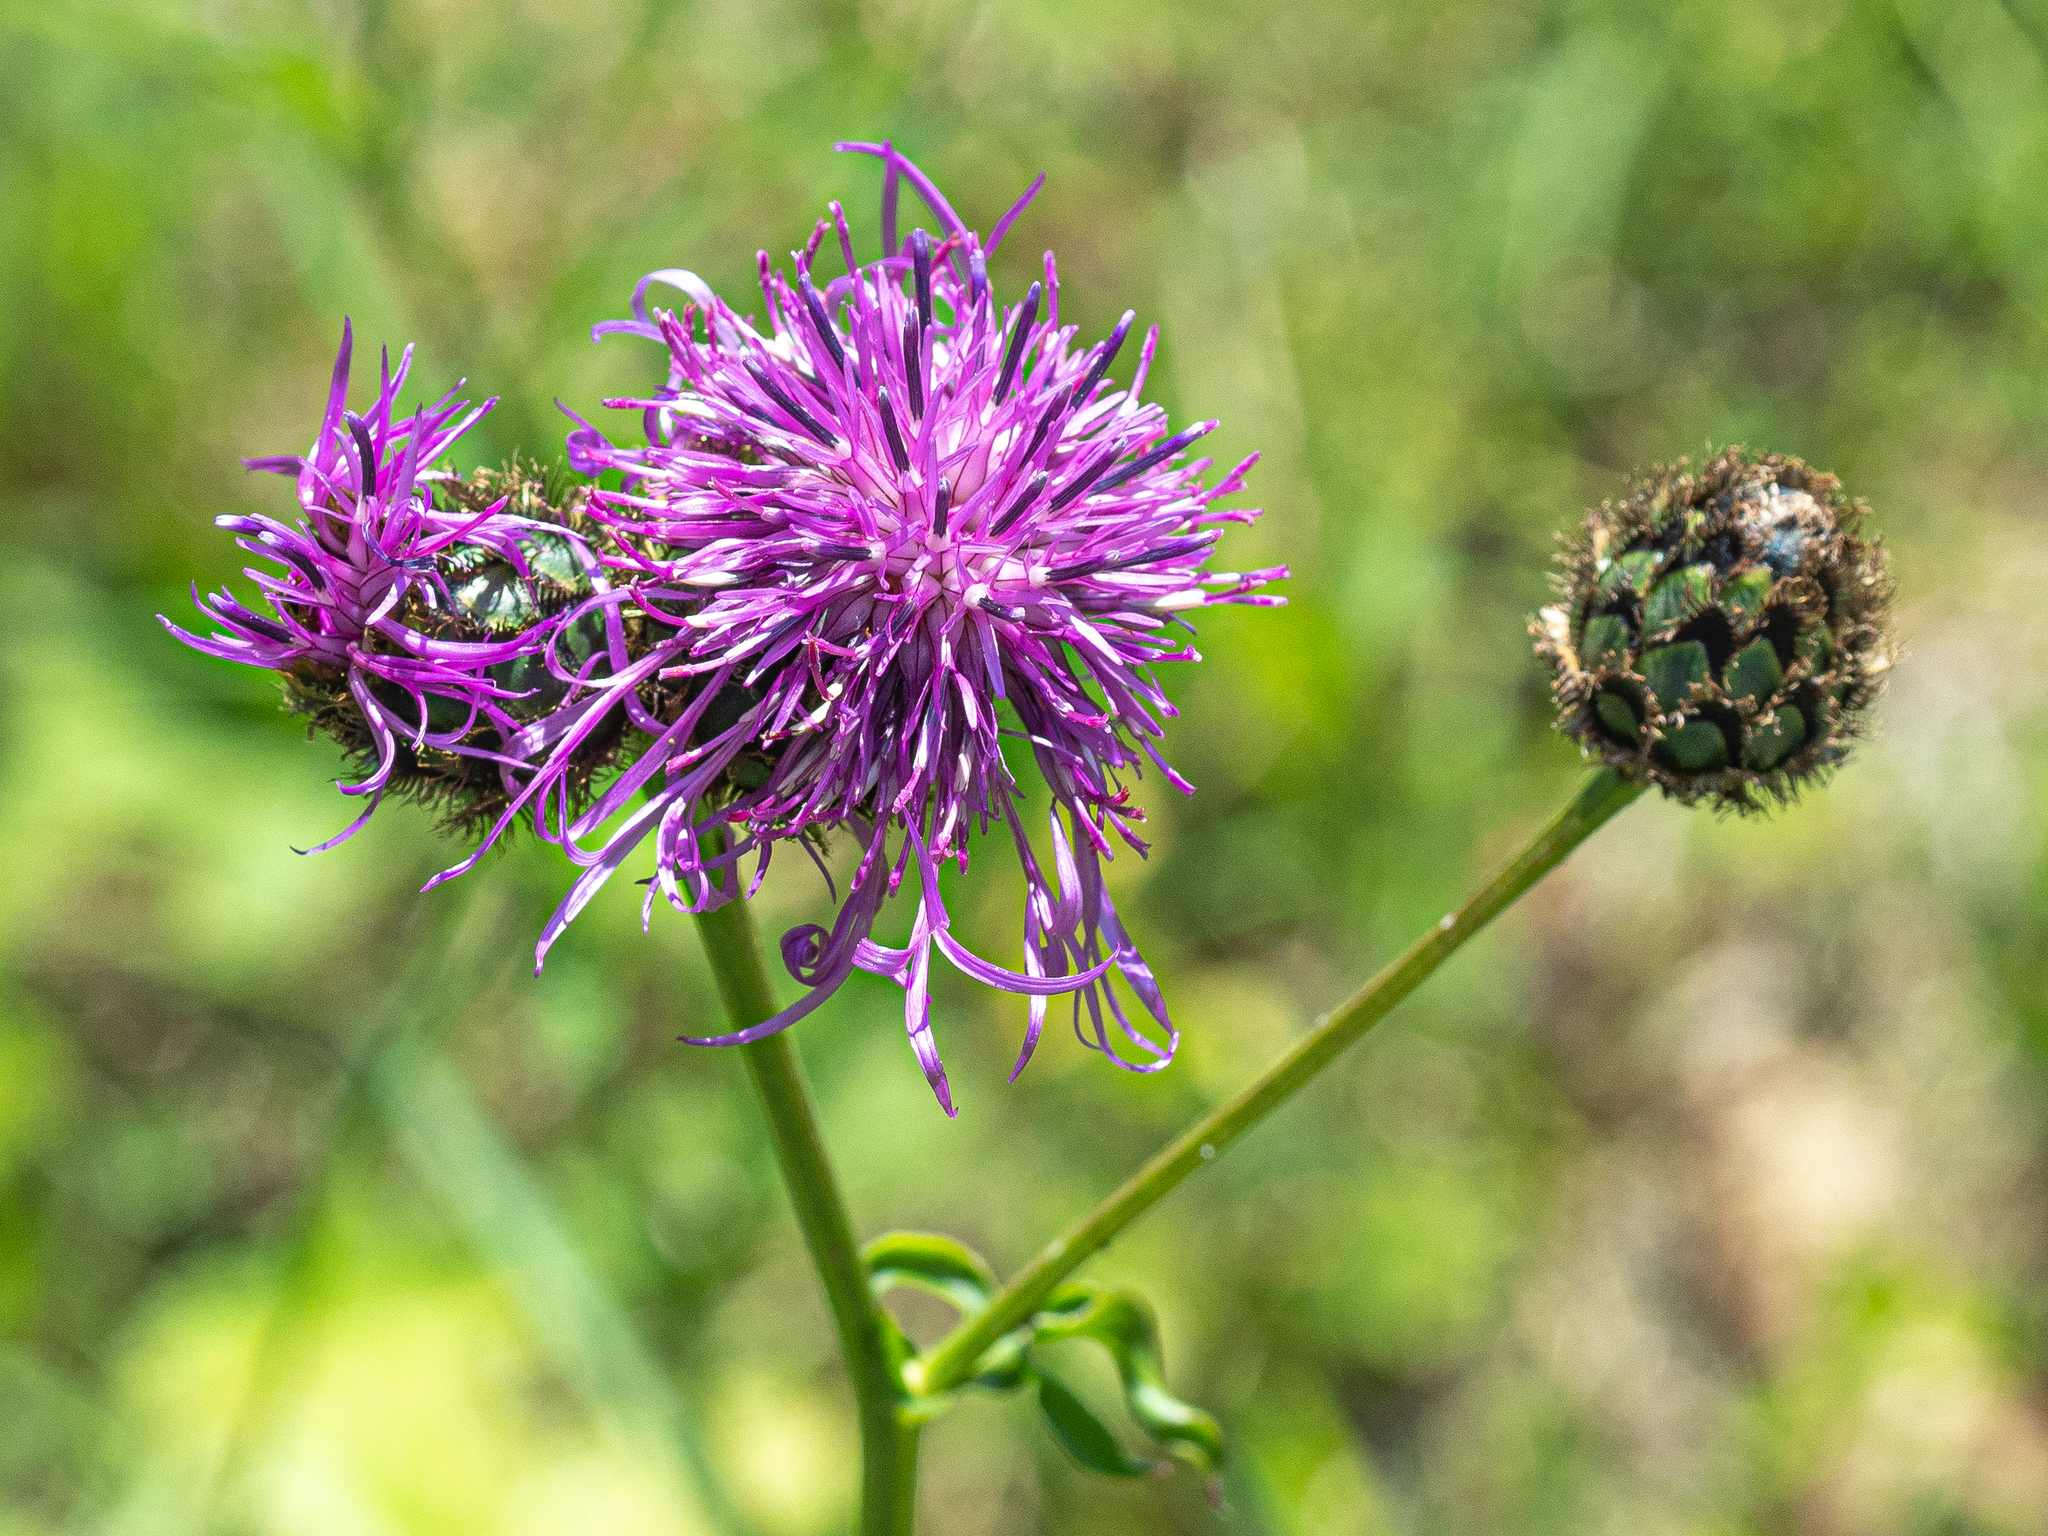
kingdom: Plantae
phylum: Tracheophyta
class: Magnoliopsida
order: Asterales
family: Asteraceae
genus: Centaurea
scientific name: Centaurea scabiosa
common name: Greater knapweed
